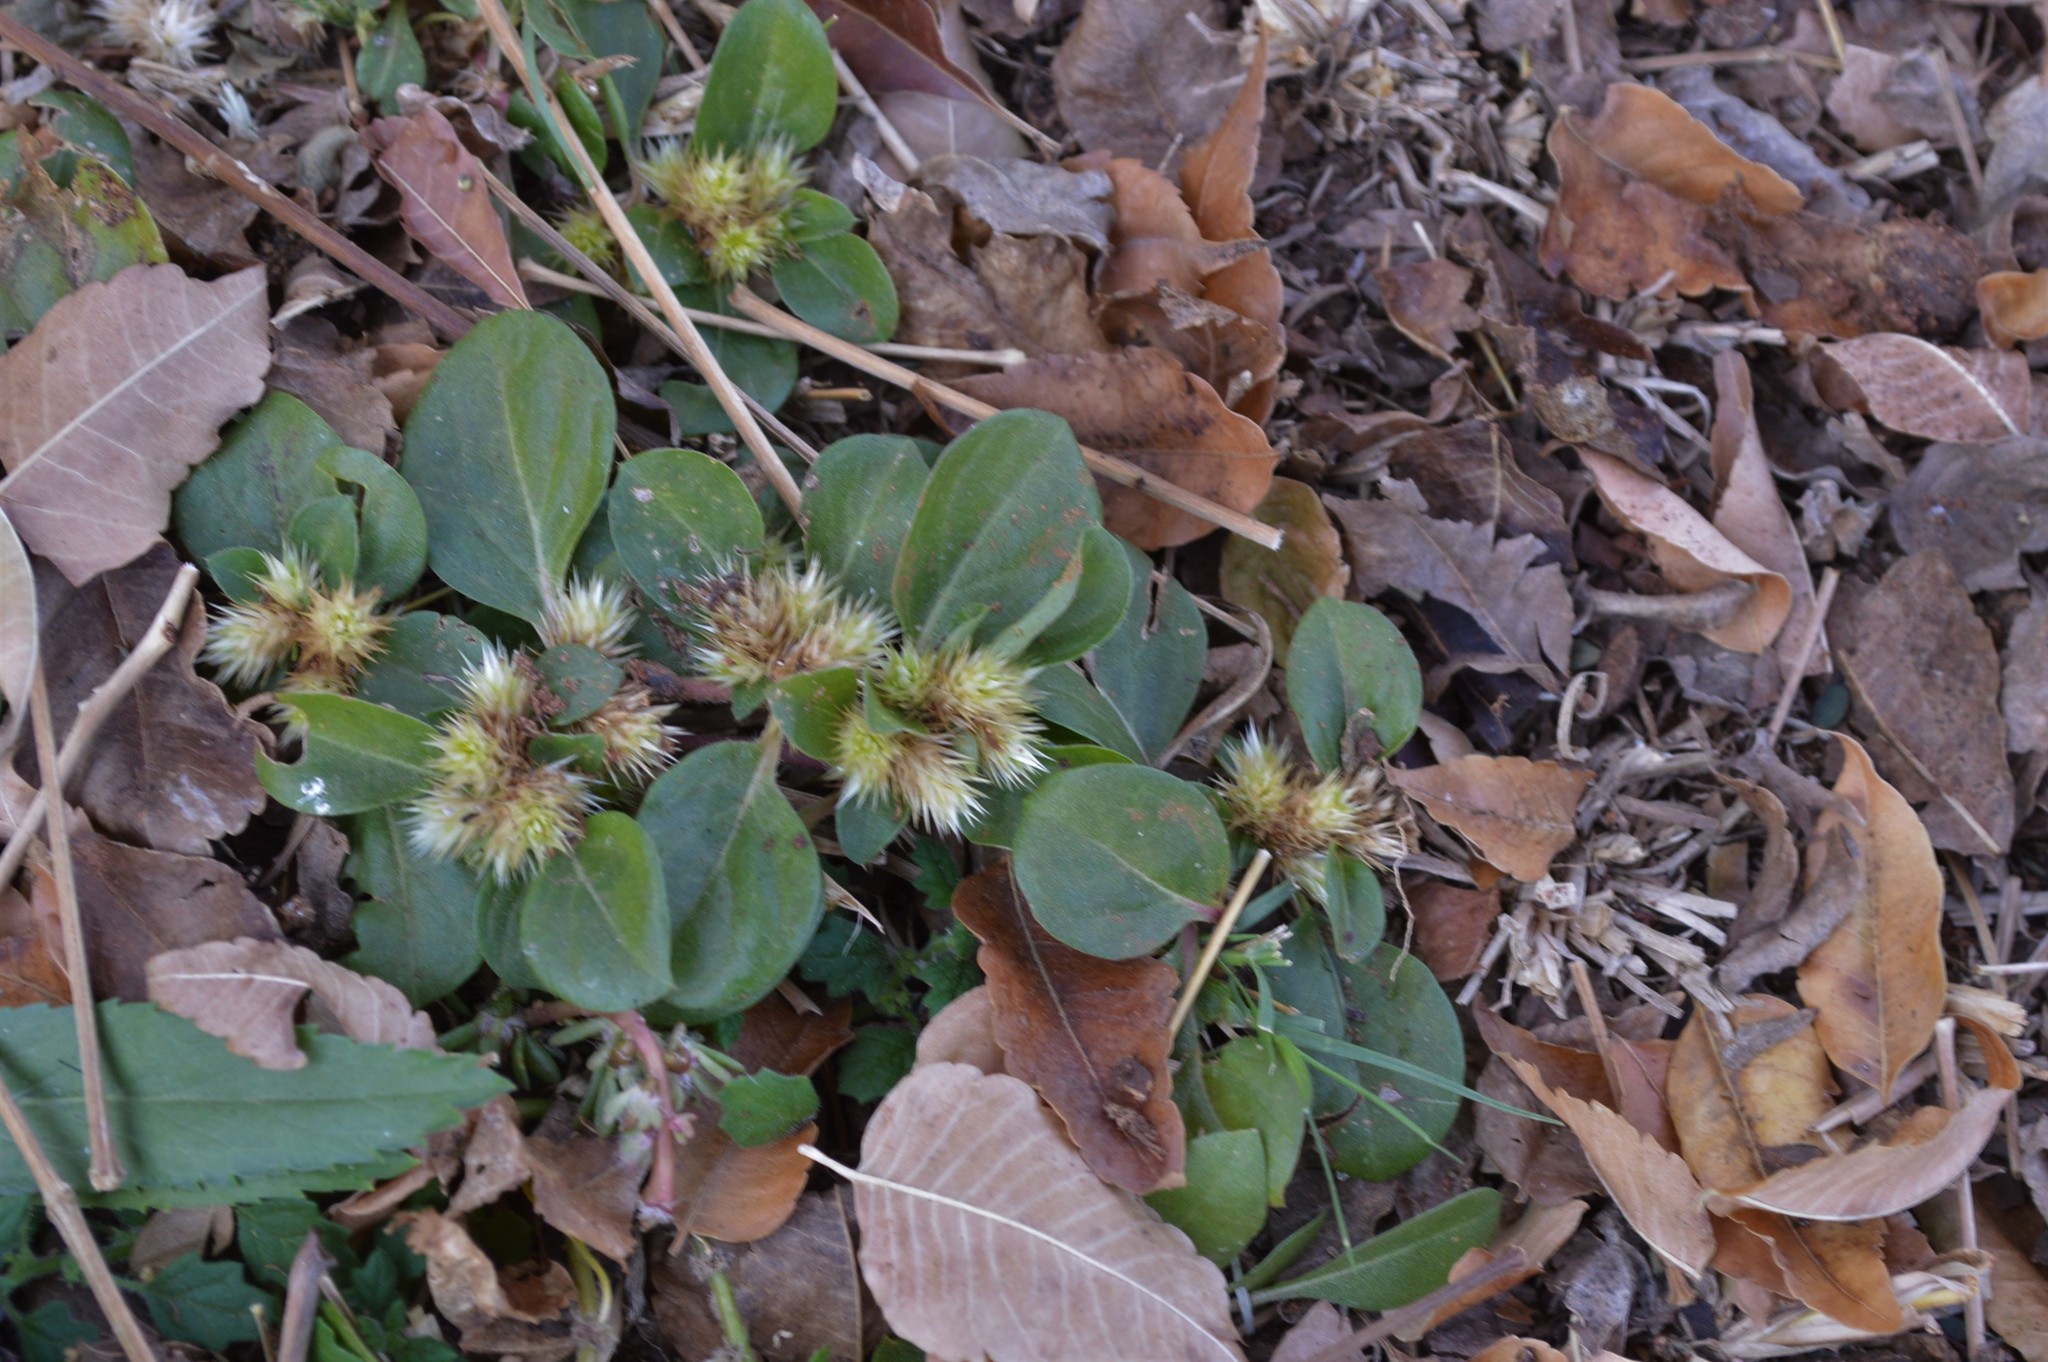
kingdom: Plantae
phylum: Tracheophyta
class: Magnoliopsida
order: Caryophyllales
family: Amaranthaceae
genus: Alternanthera
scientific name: Alternanthera pungens
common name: Khakiweed
